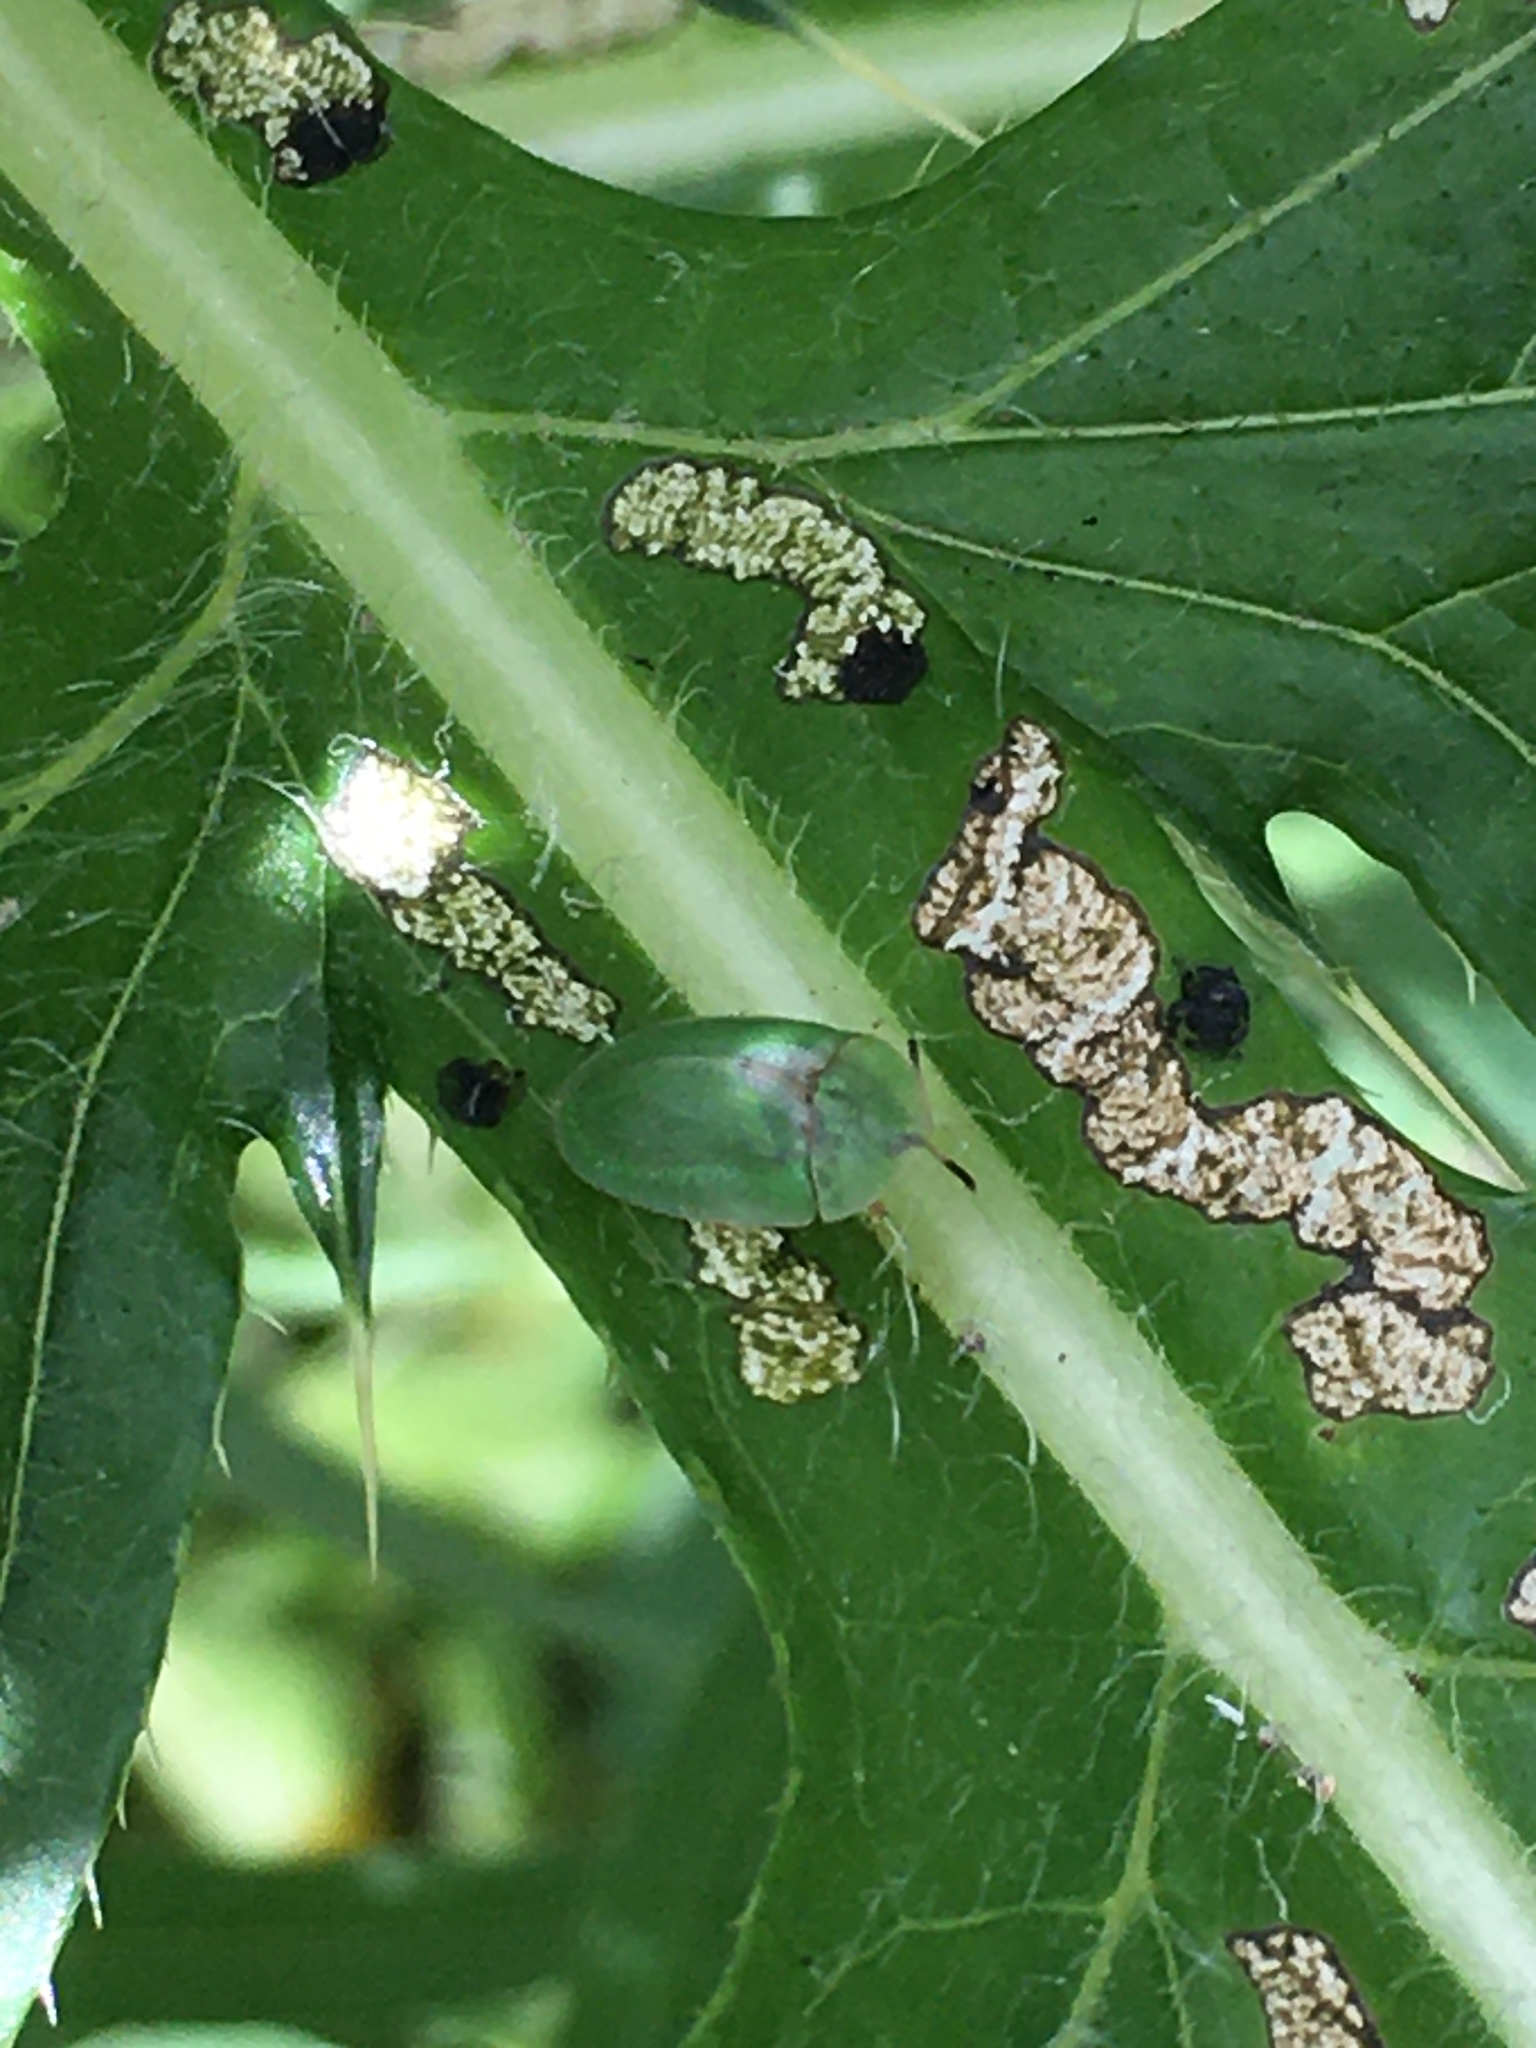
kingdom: Animalia
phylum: Arthropoda
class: Insecta
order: Coleoptera
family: Chrysomelidae
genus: Cassida
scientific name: Cassida rubiginosa
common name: Thistle tortoise beetle
